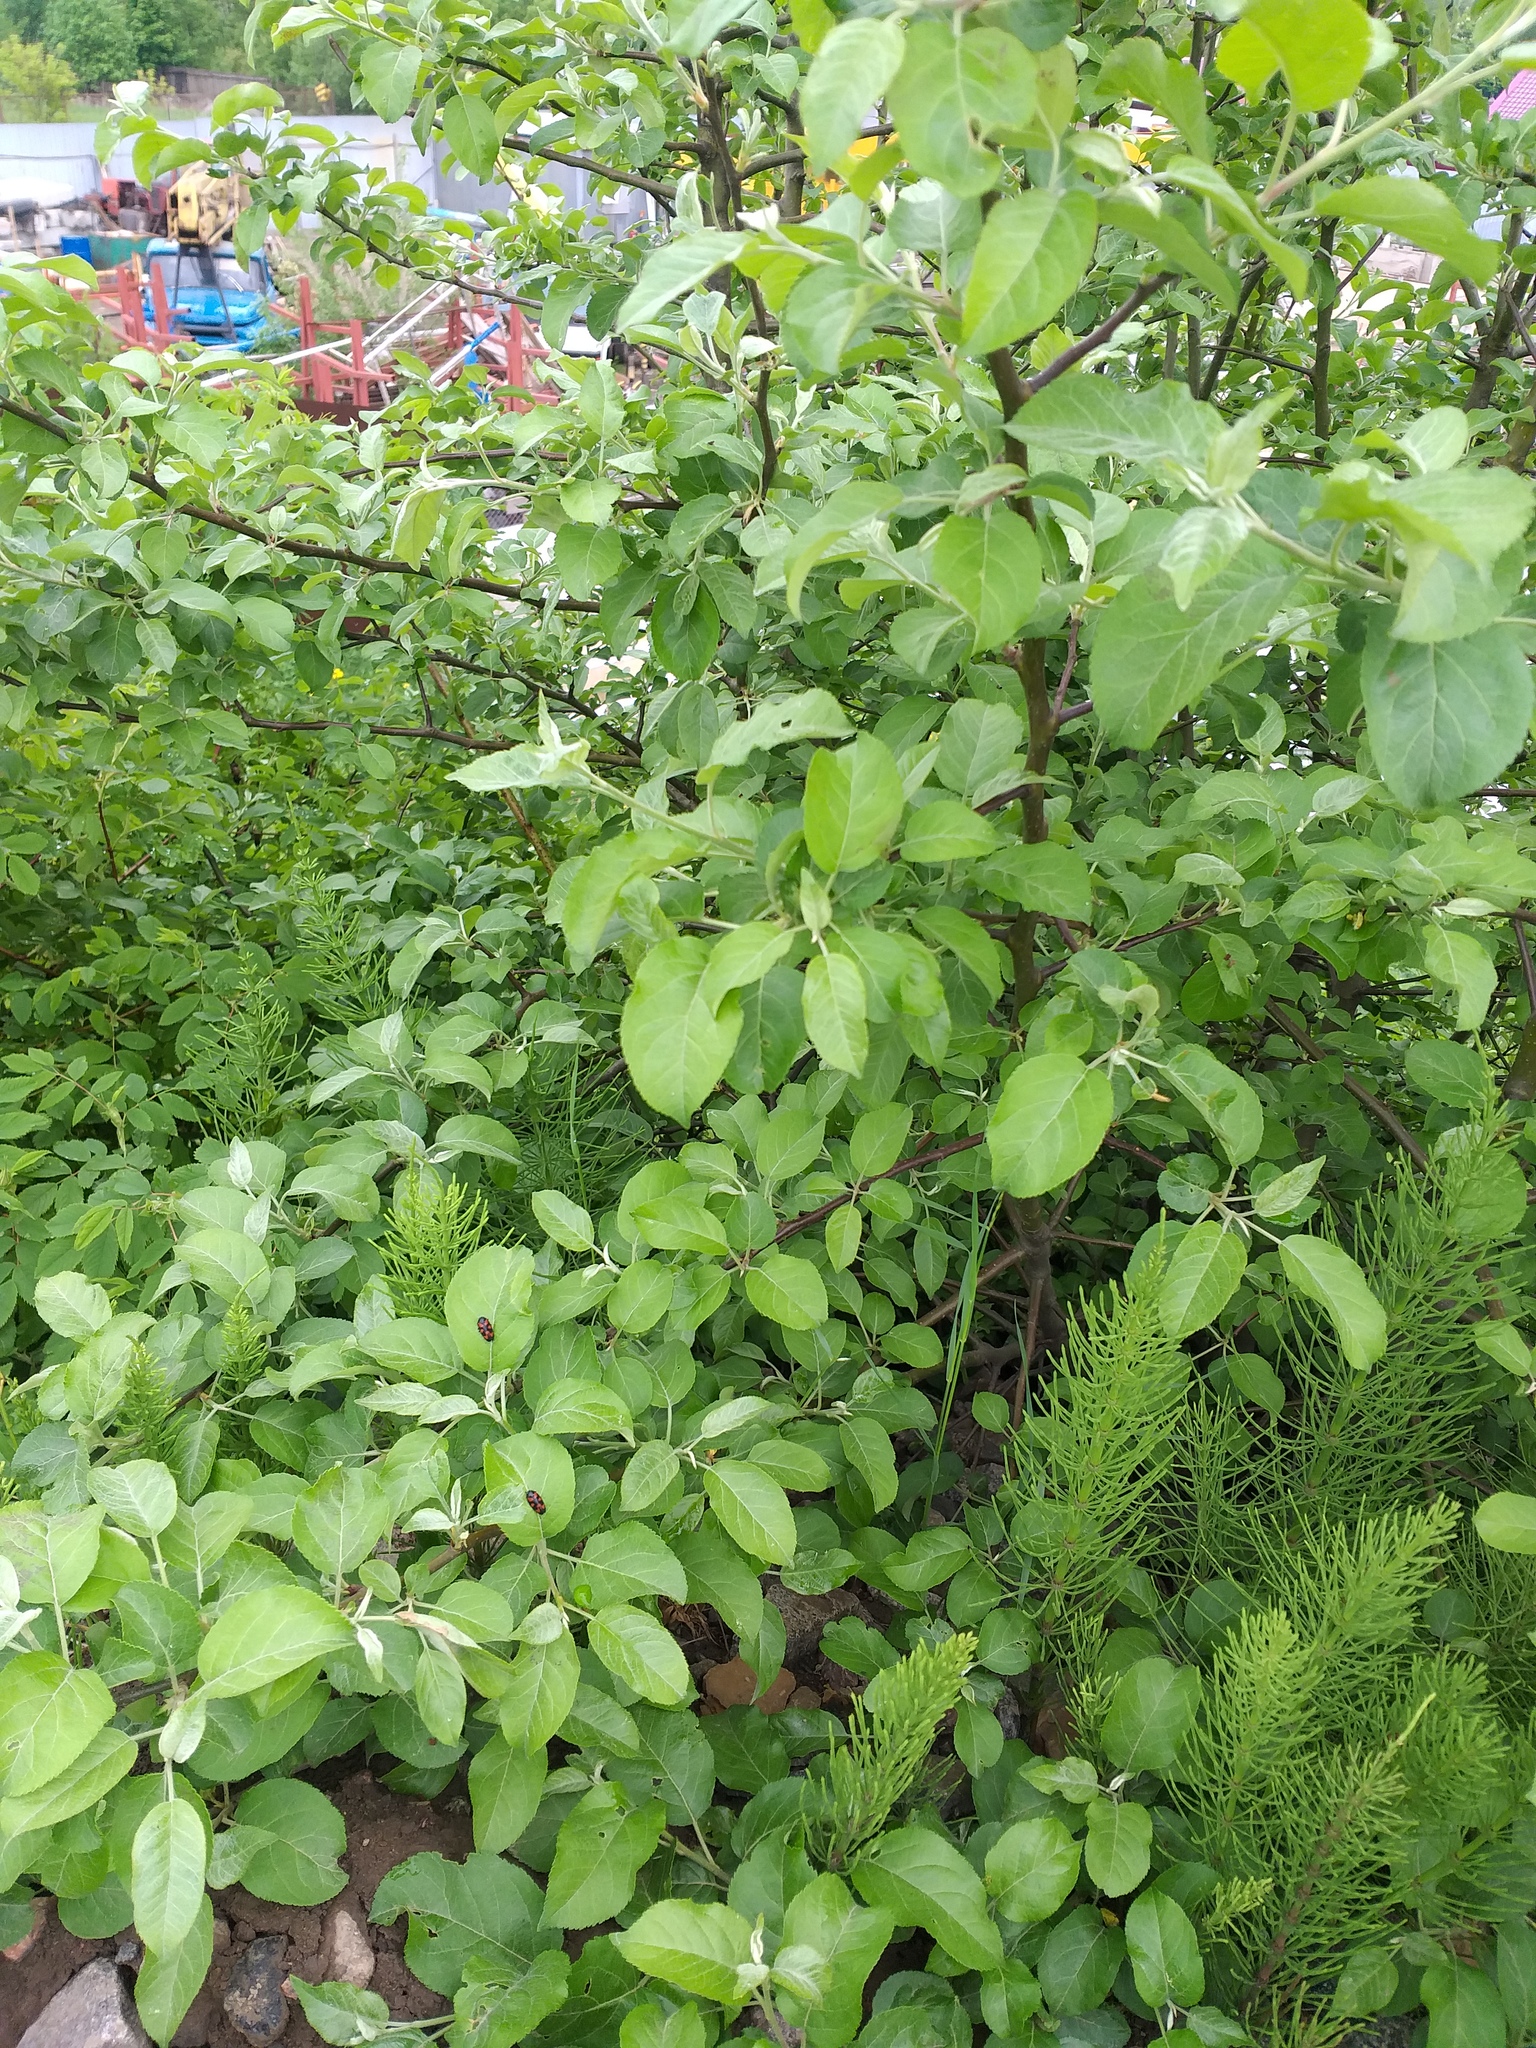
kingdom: Plantae
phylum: Tracheophyta
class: Magnoliopsida
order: Rosales
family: Rosaceae
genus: Malus
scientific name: Malus domestica
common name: Apple
